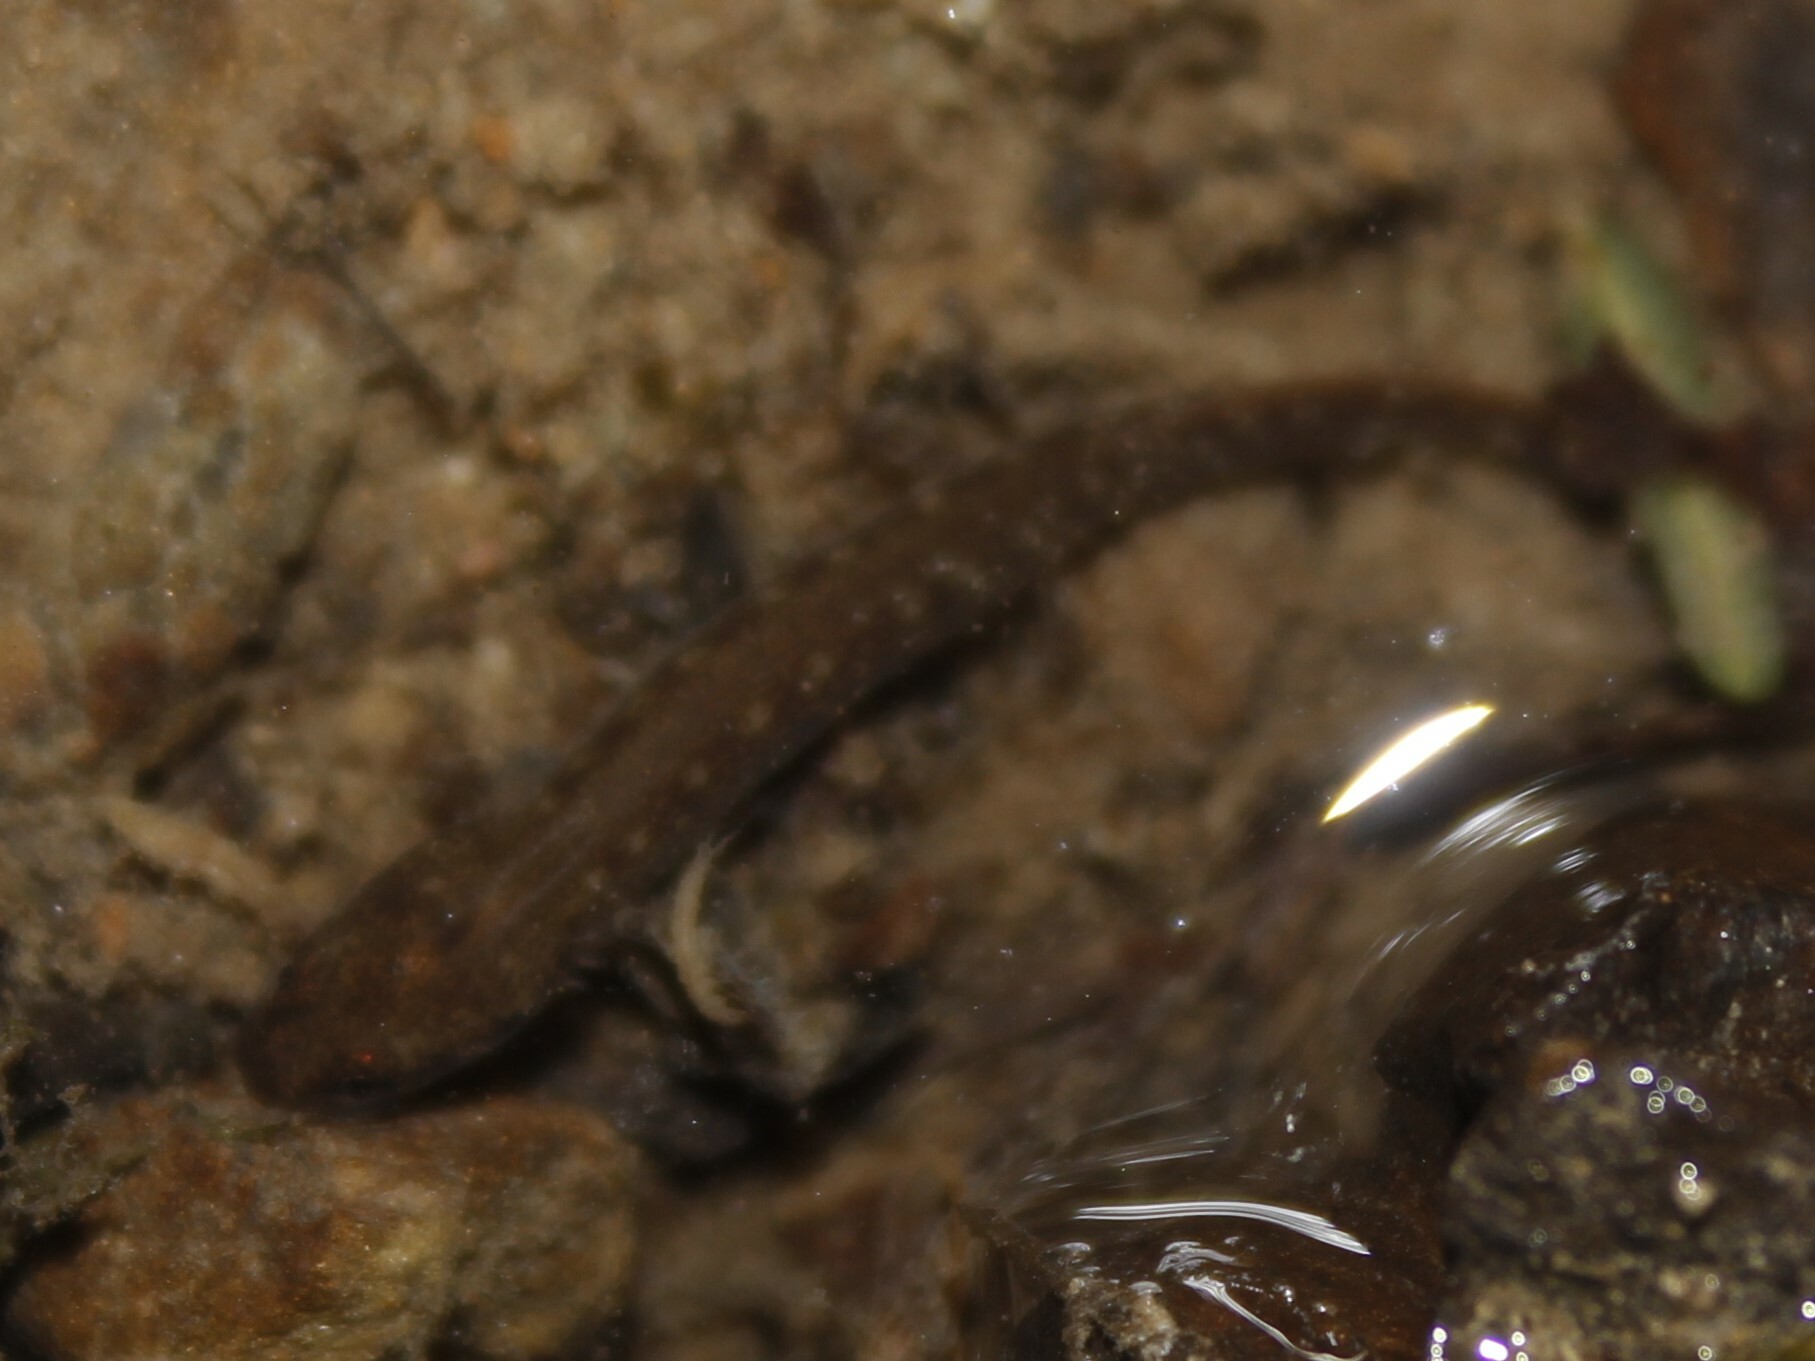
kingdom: Animalia
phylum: Chordata
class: Amphibia
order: Caudata
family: Plethodontidae
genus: Eurycea
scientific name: Eurycea bislineata
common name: Northern two-lined salamander
